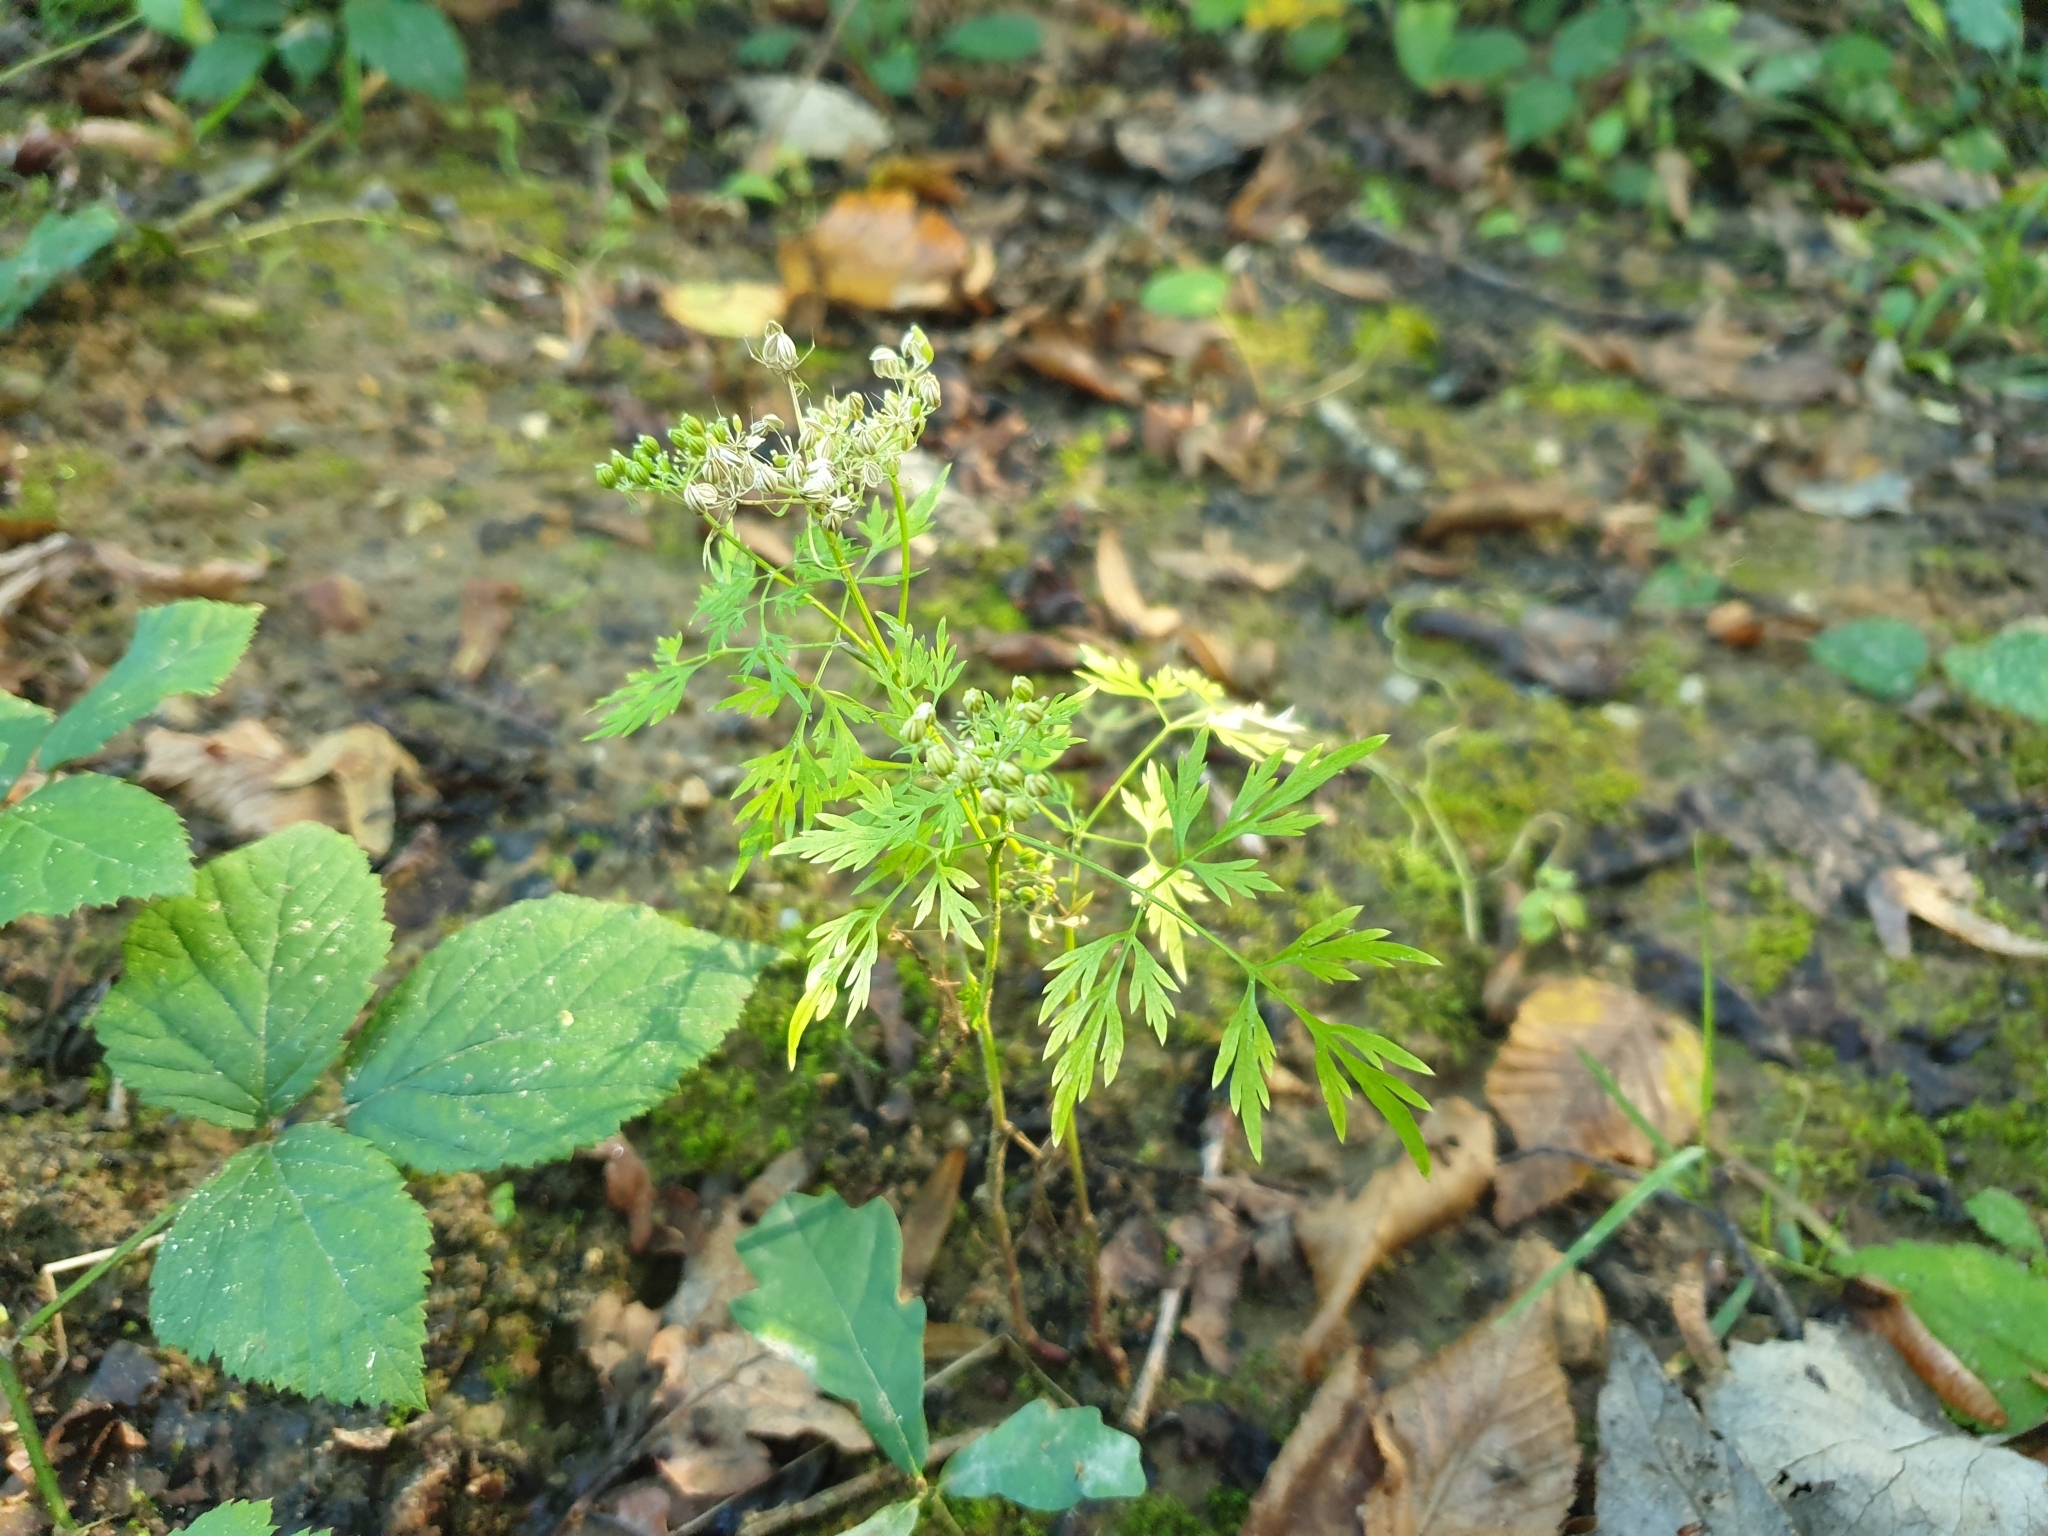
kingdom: Plantae
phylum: Tracheophyta
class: Magnoliopsida
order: Apiales
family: Apiaceae
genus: Aethusa
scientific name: Aethusa cynapium
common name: Fool's parsley
